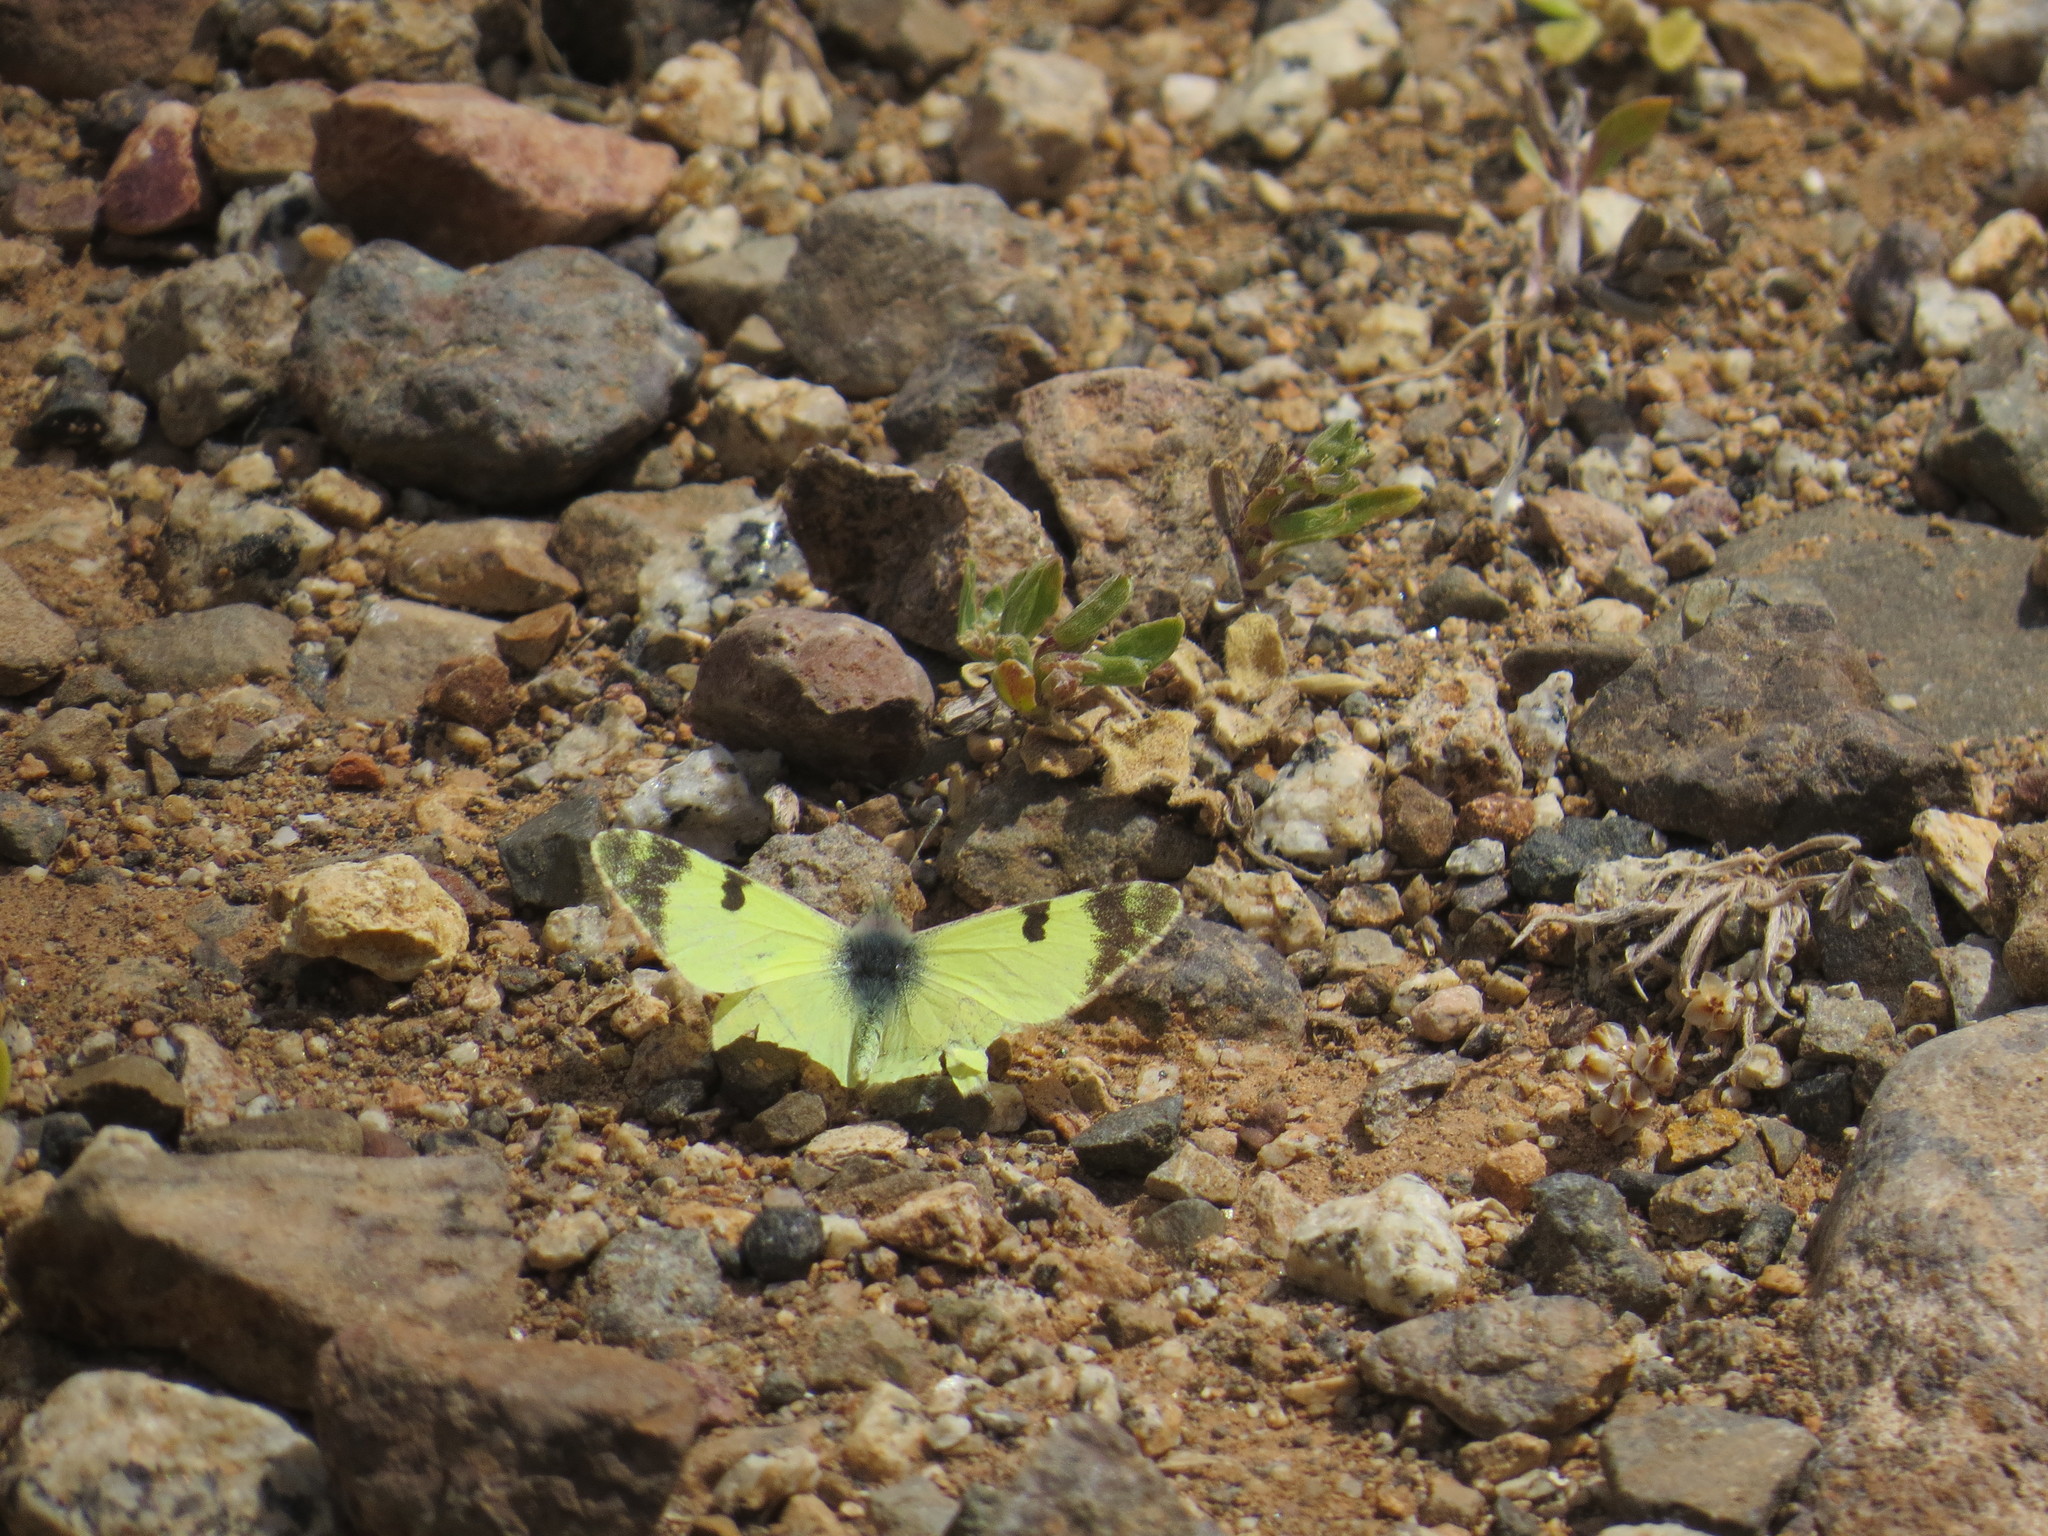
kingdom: Animalia
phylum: Arthropoda
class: Insecta
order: Lepidoptera
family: Pieridae
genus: Elphinstonia
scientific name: Elphinstonia charlonia
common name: Greenish black-tip
